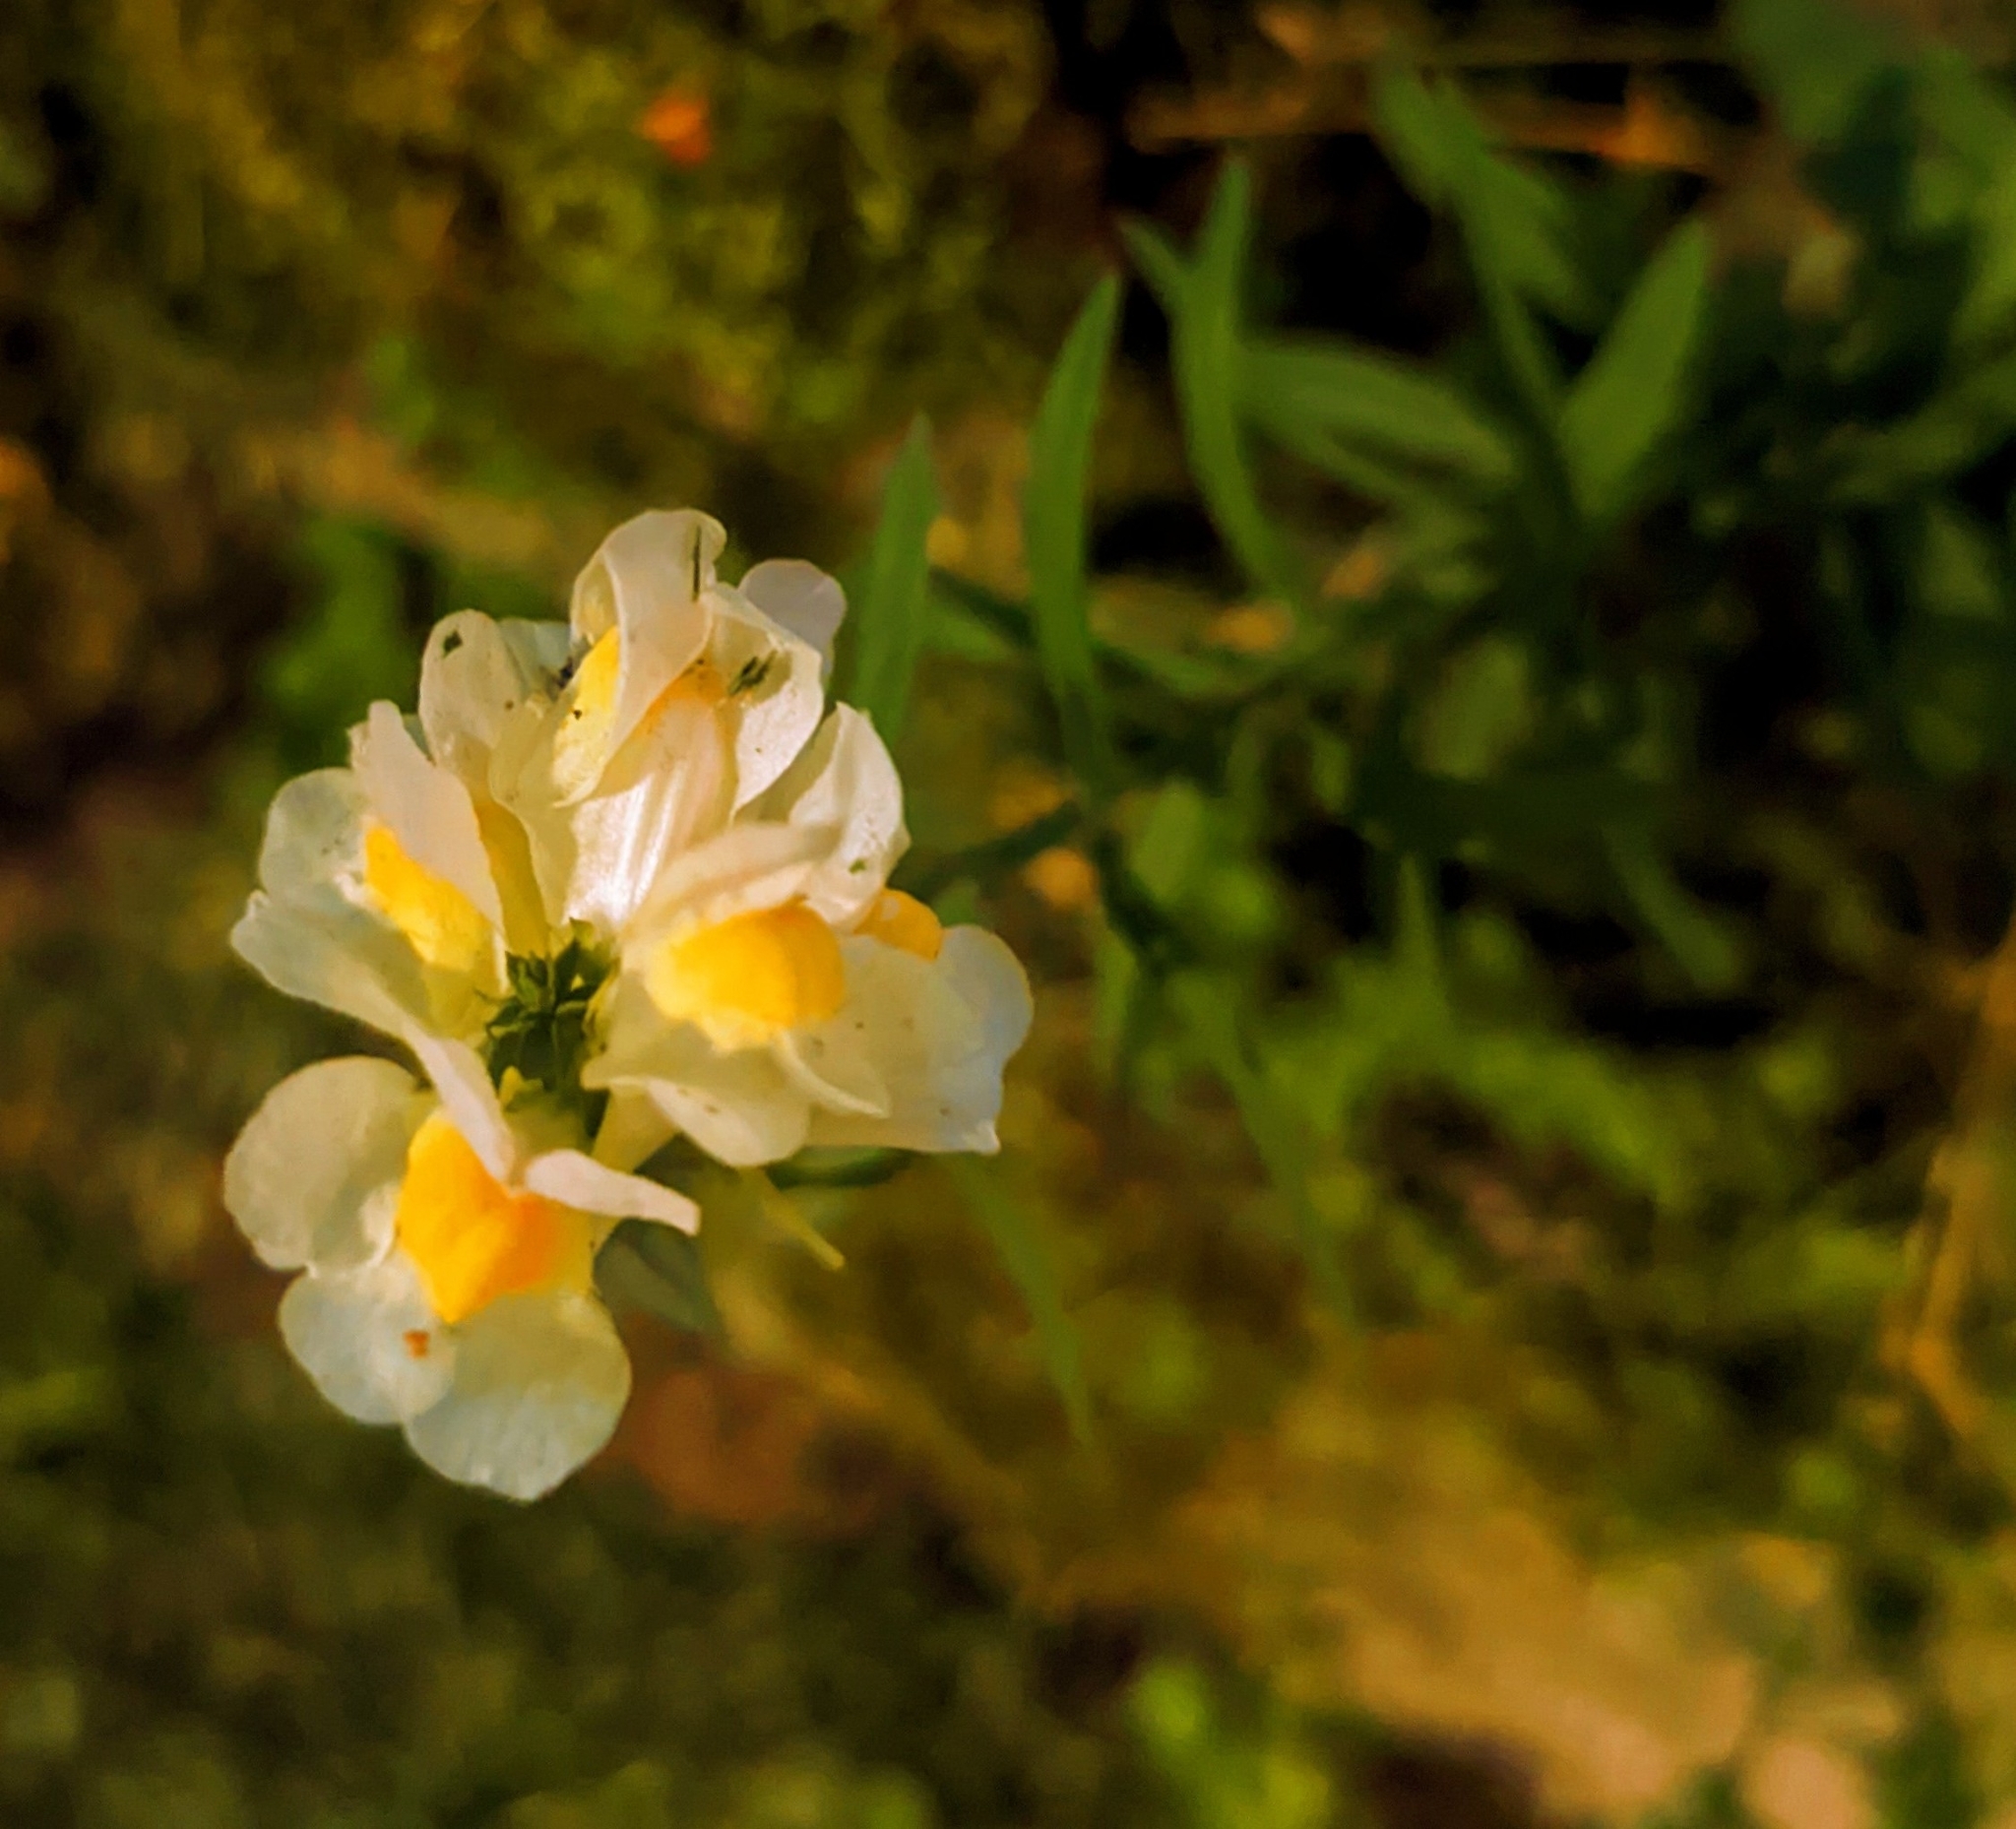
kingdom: Plantae
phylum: Tracheophyta
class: Magnoliopsida
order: Lamiales
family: Plantaginaceae
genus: Linaria
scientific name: Linaria vulgaris
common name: Butter and eggs
